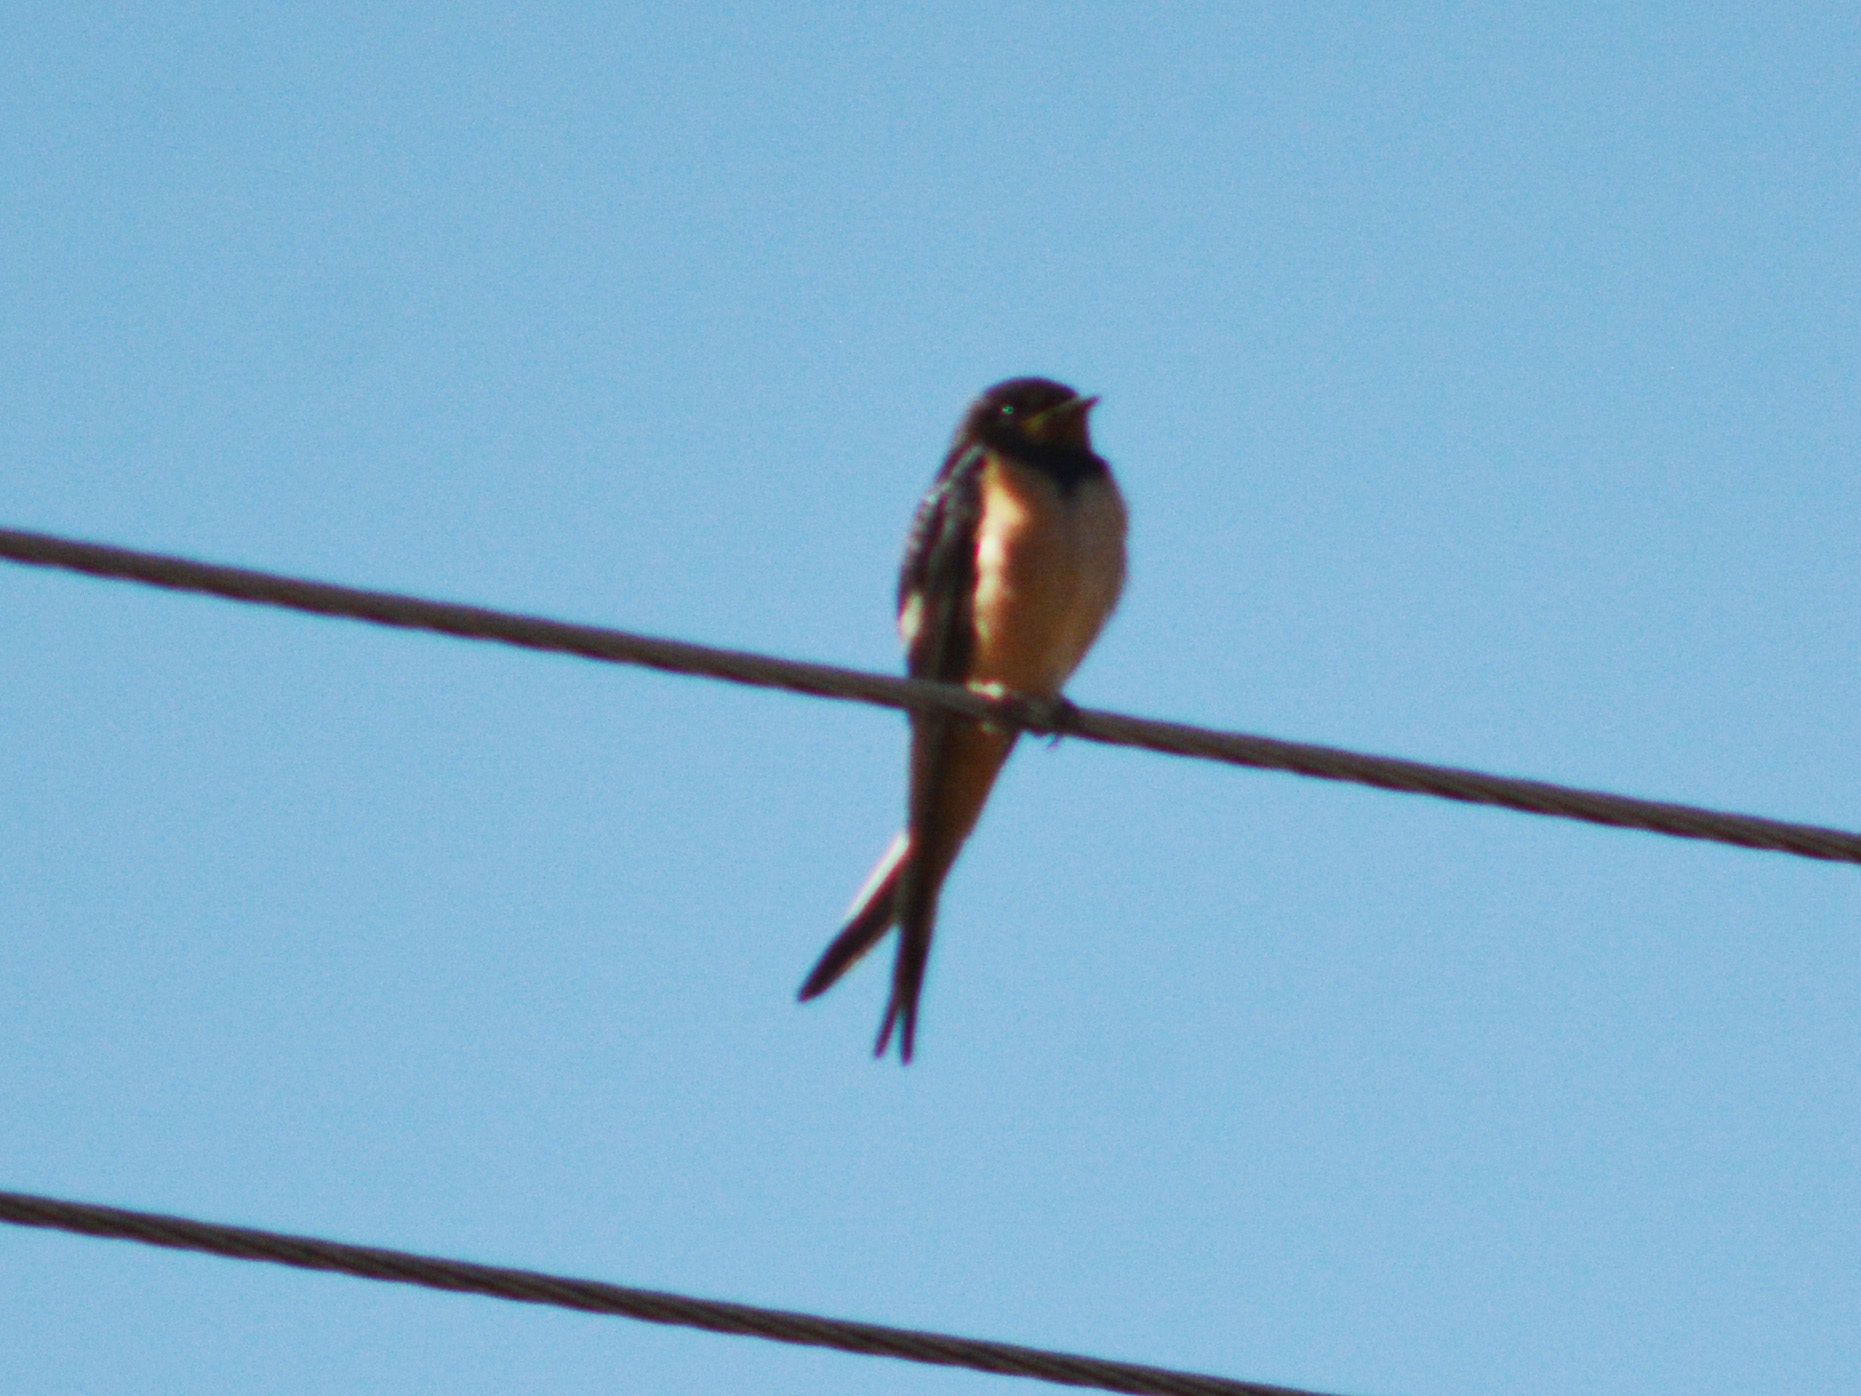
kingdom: Animalia
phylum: Chordata
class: Aves
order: Passeriformes
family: Hirundinidae
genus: Hirundo
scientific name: Hirundo rustica
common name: Barn swallow
